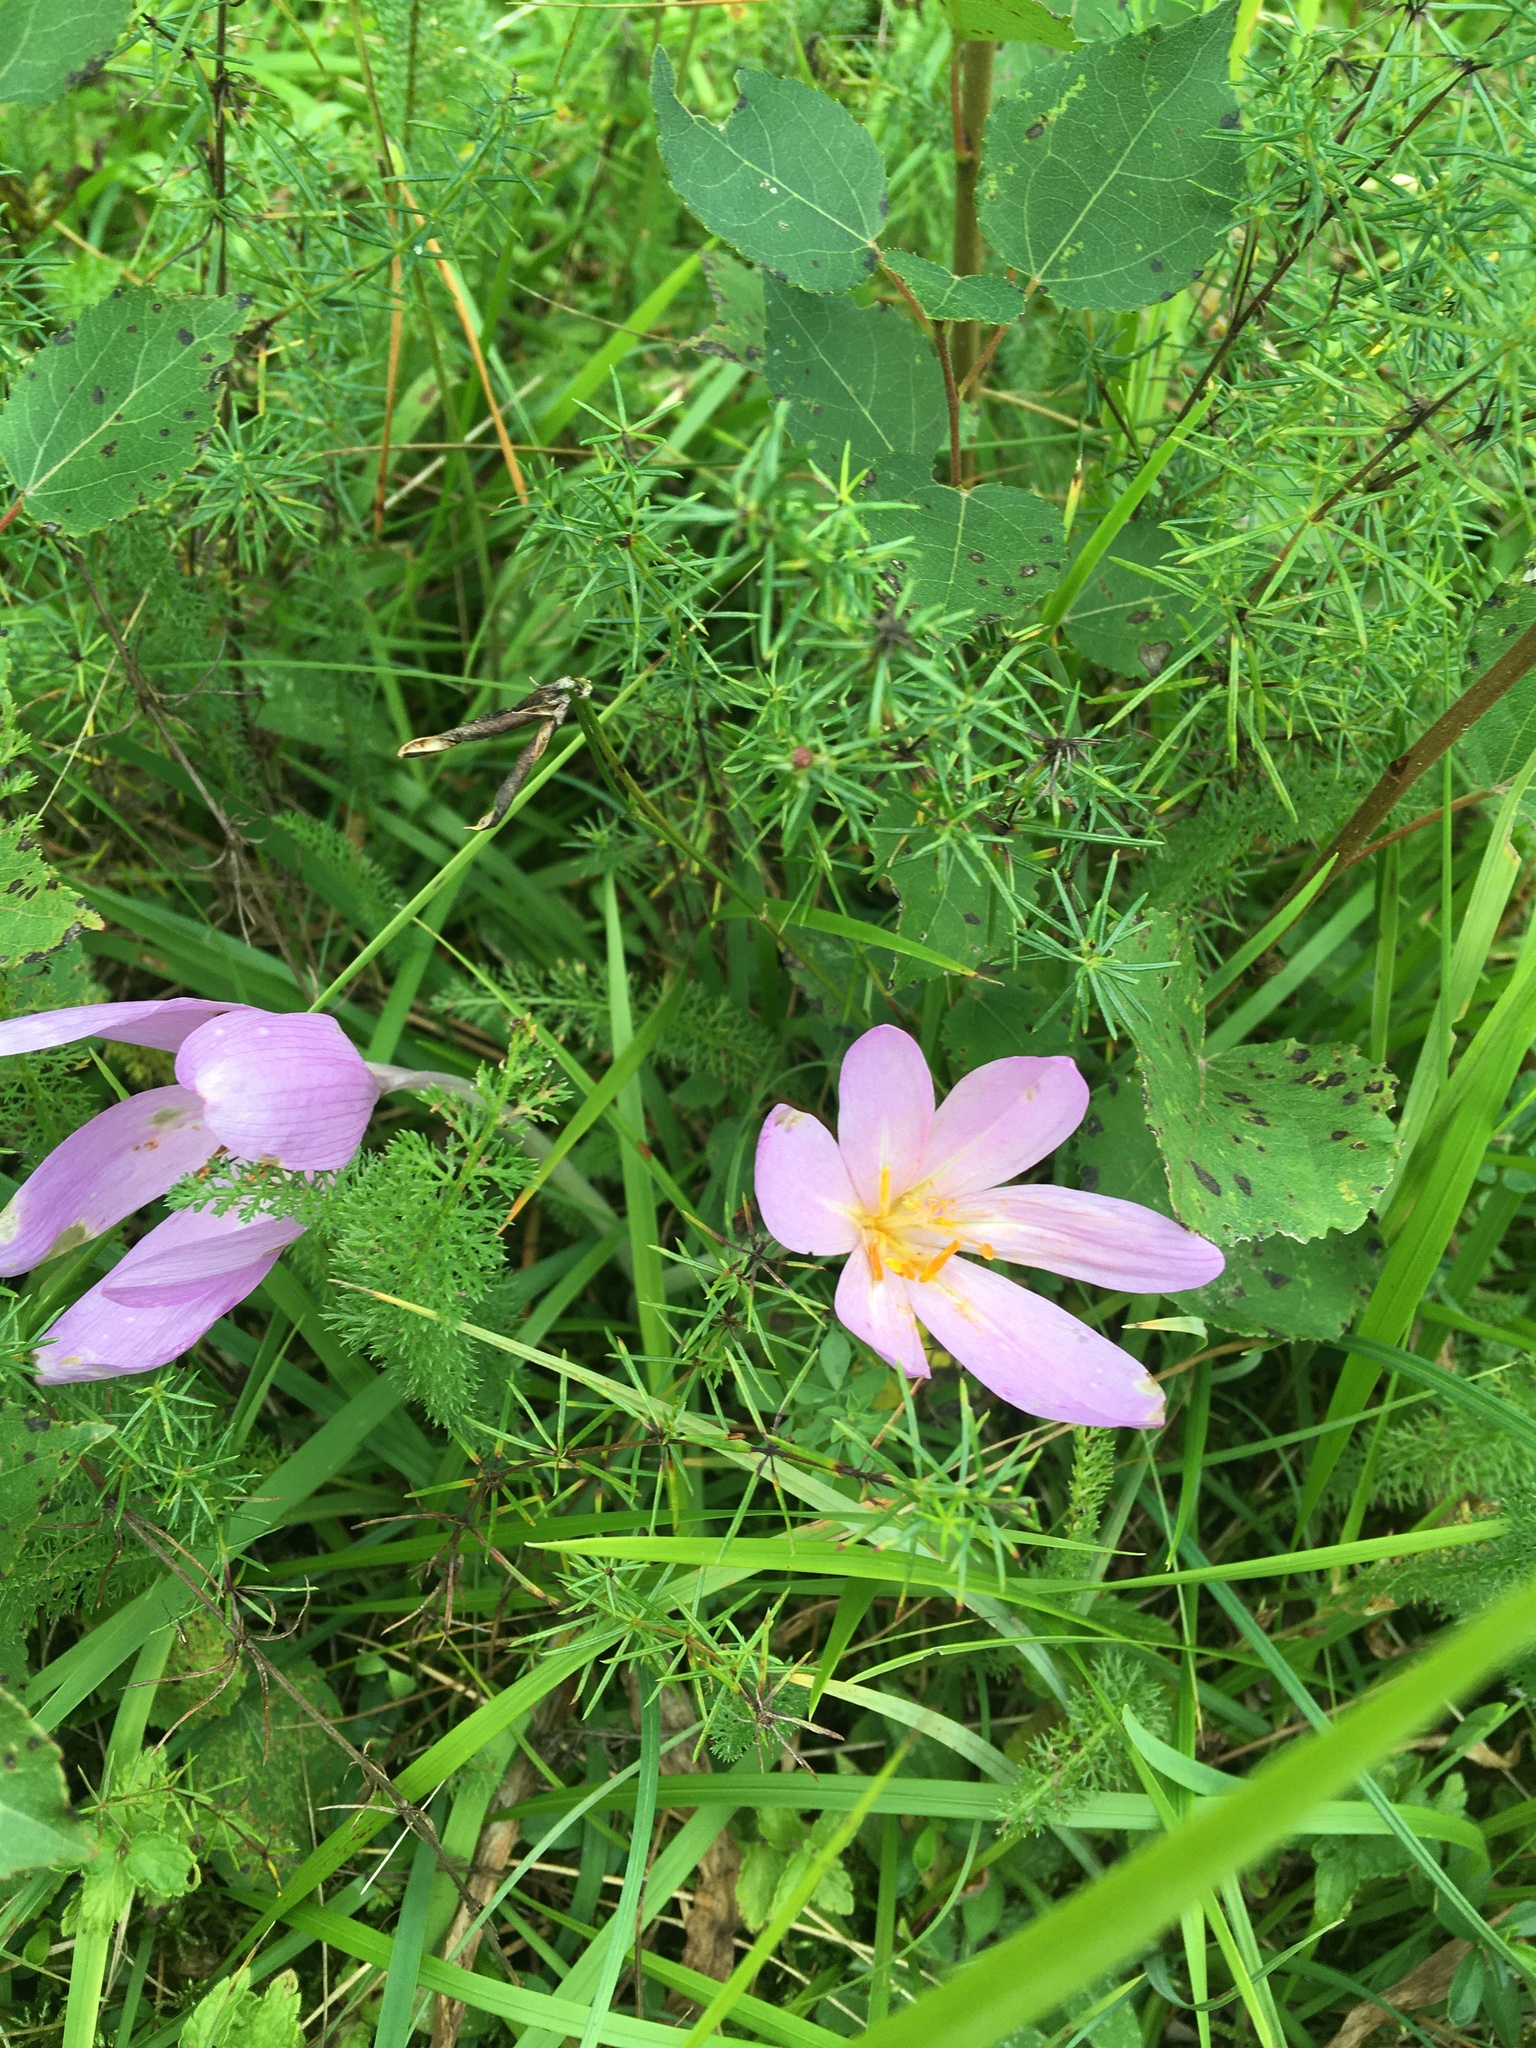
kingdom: Plantae
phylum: Tracheophyta
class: Liliopsida
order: Liliales
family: Colchicaceae
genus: Colchicum
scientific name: Colchicum autumnale
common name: Autumn crocus
